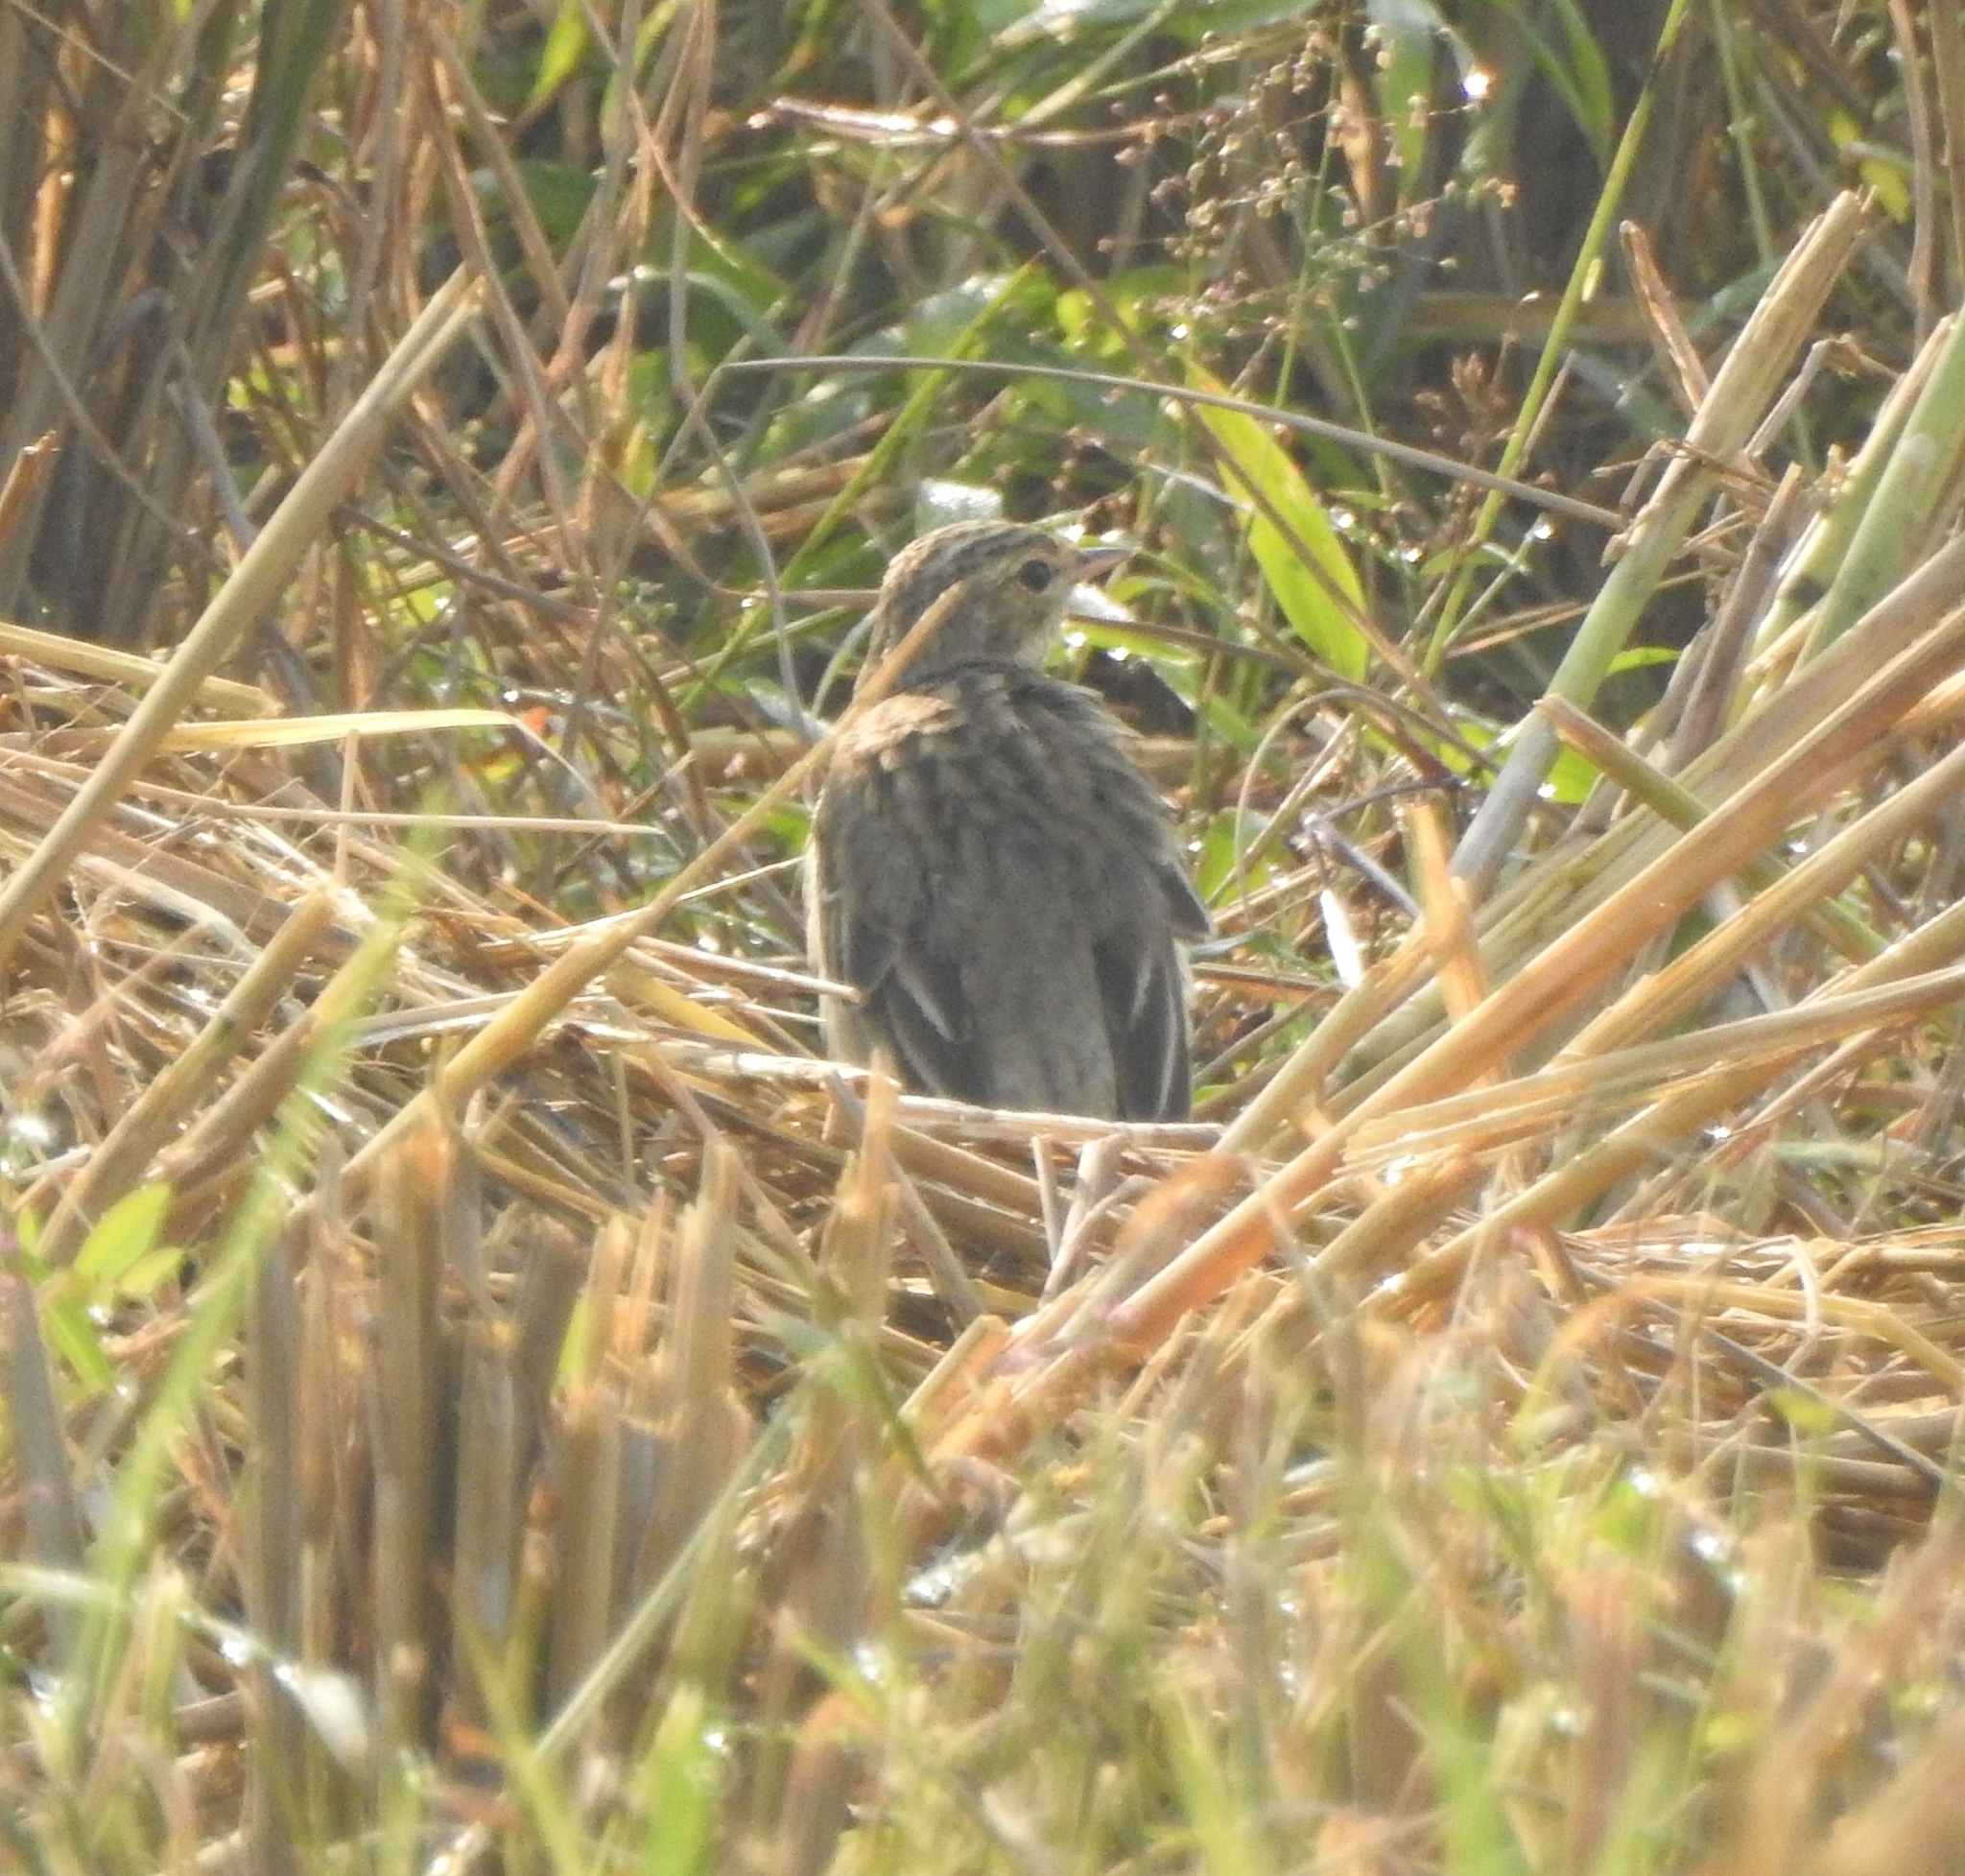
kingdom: Animalia
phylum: Chordata
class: Aves
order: Passeriformes
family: Motacillidae
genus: Anthus
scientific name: Anthus trivialis
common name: Tree pipit
